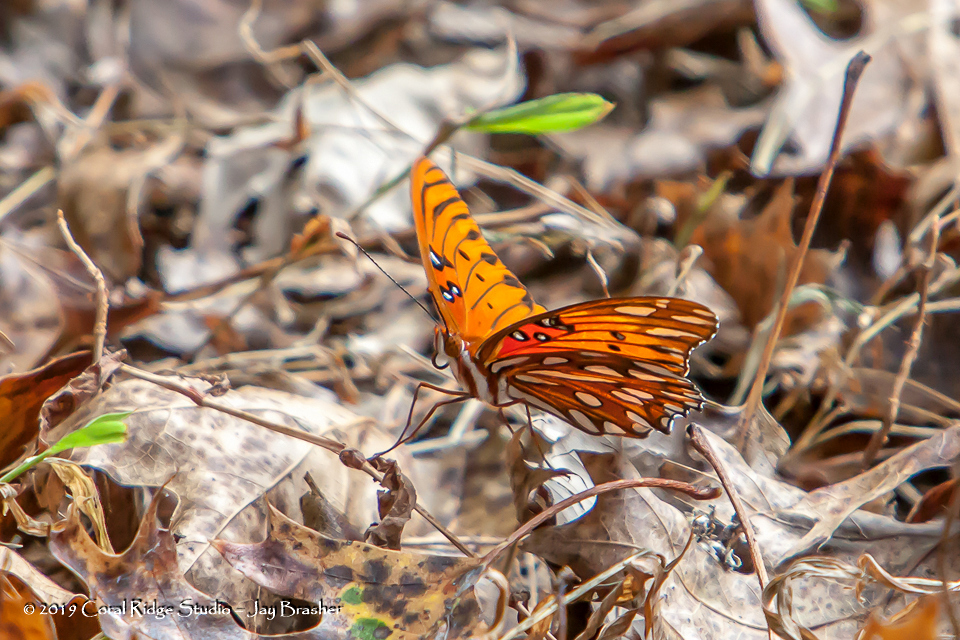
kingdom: Animalia
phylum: Arthropoda
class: Insecta
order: Lepidoptera
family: Nymphalidae
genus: Dione
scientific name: Dione vanillae
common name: Gulf fritillary
